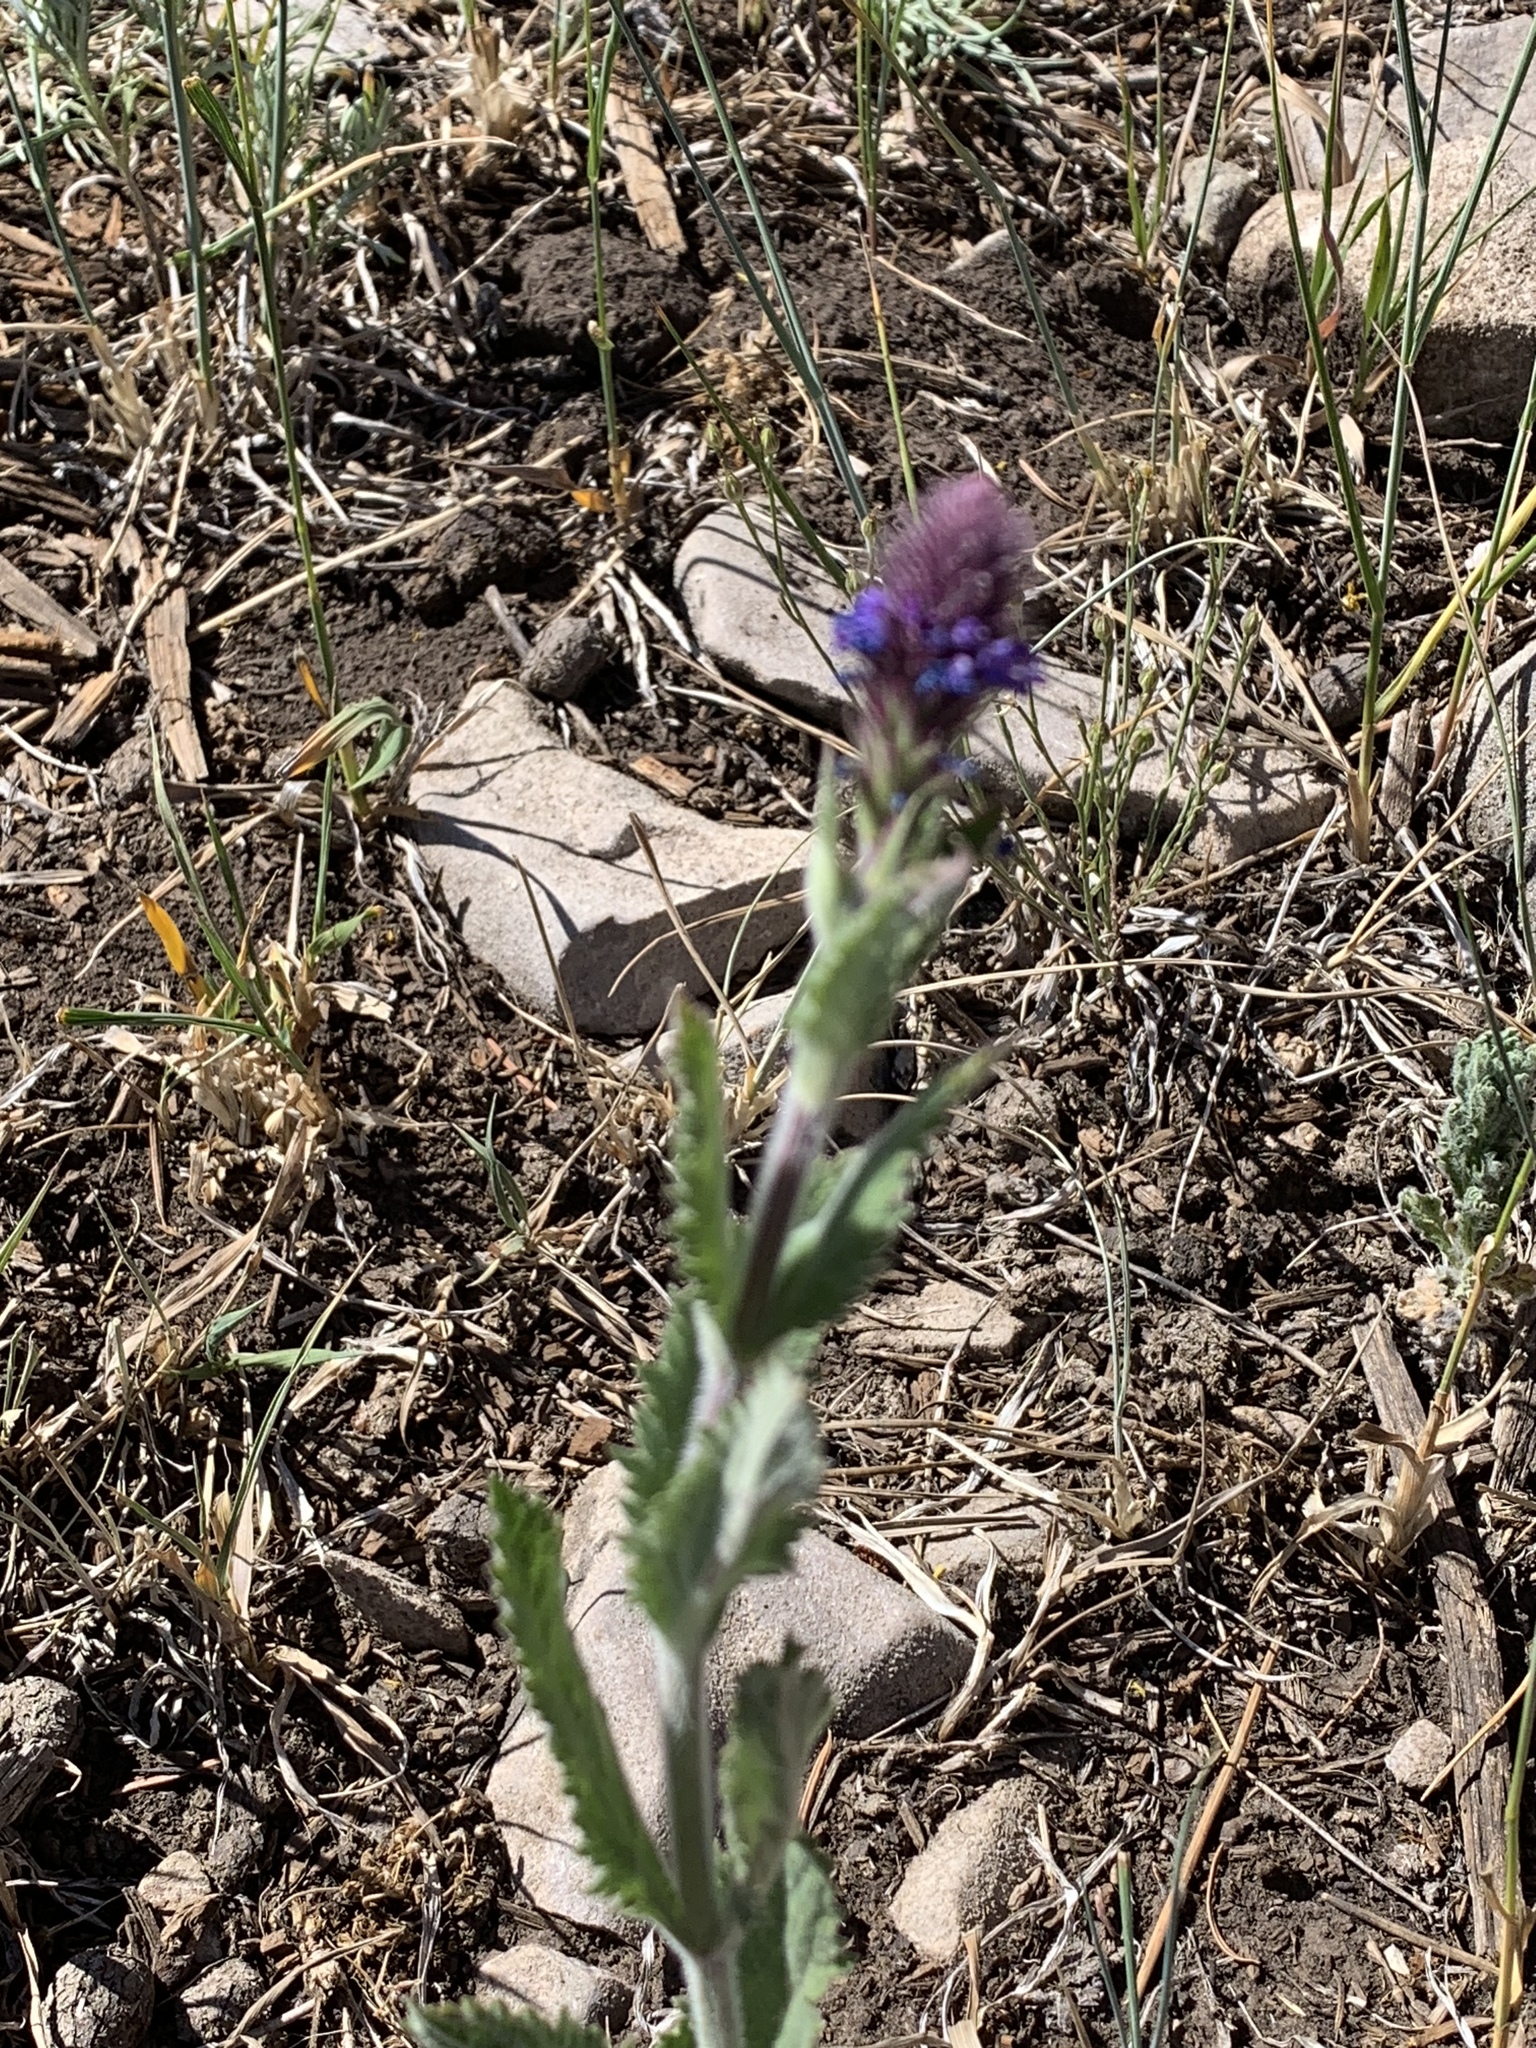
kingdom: Plantae
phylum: Tracheophyta
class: Magnoliopsida
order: Lamiales
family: Verbenaceae
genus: Verbena
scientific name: Verbena macdougalii
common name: New mexico vervain
